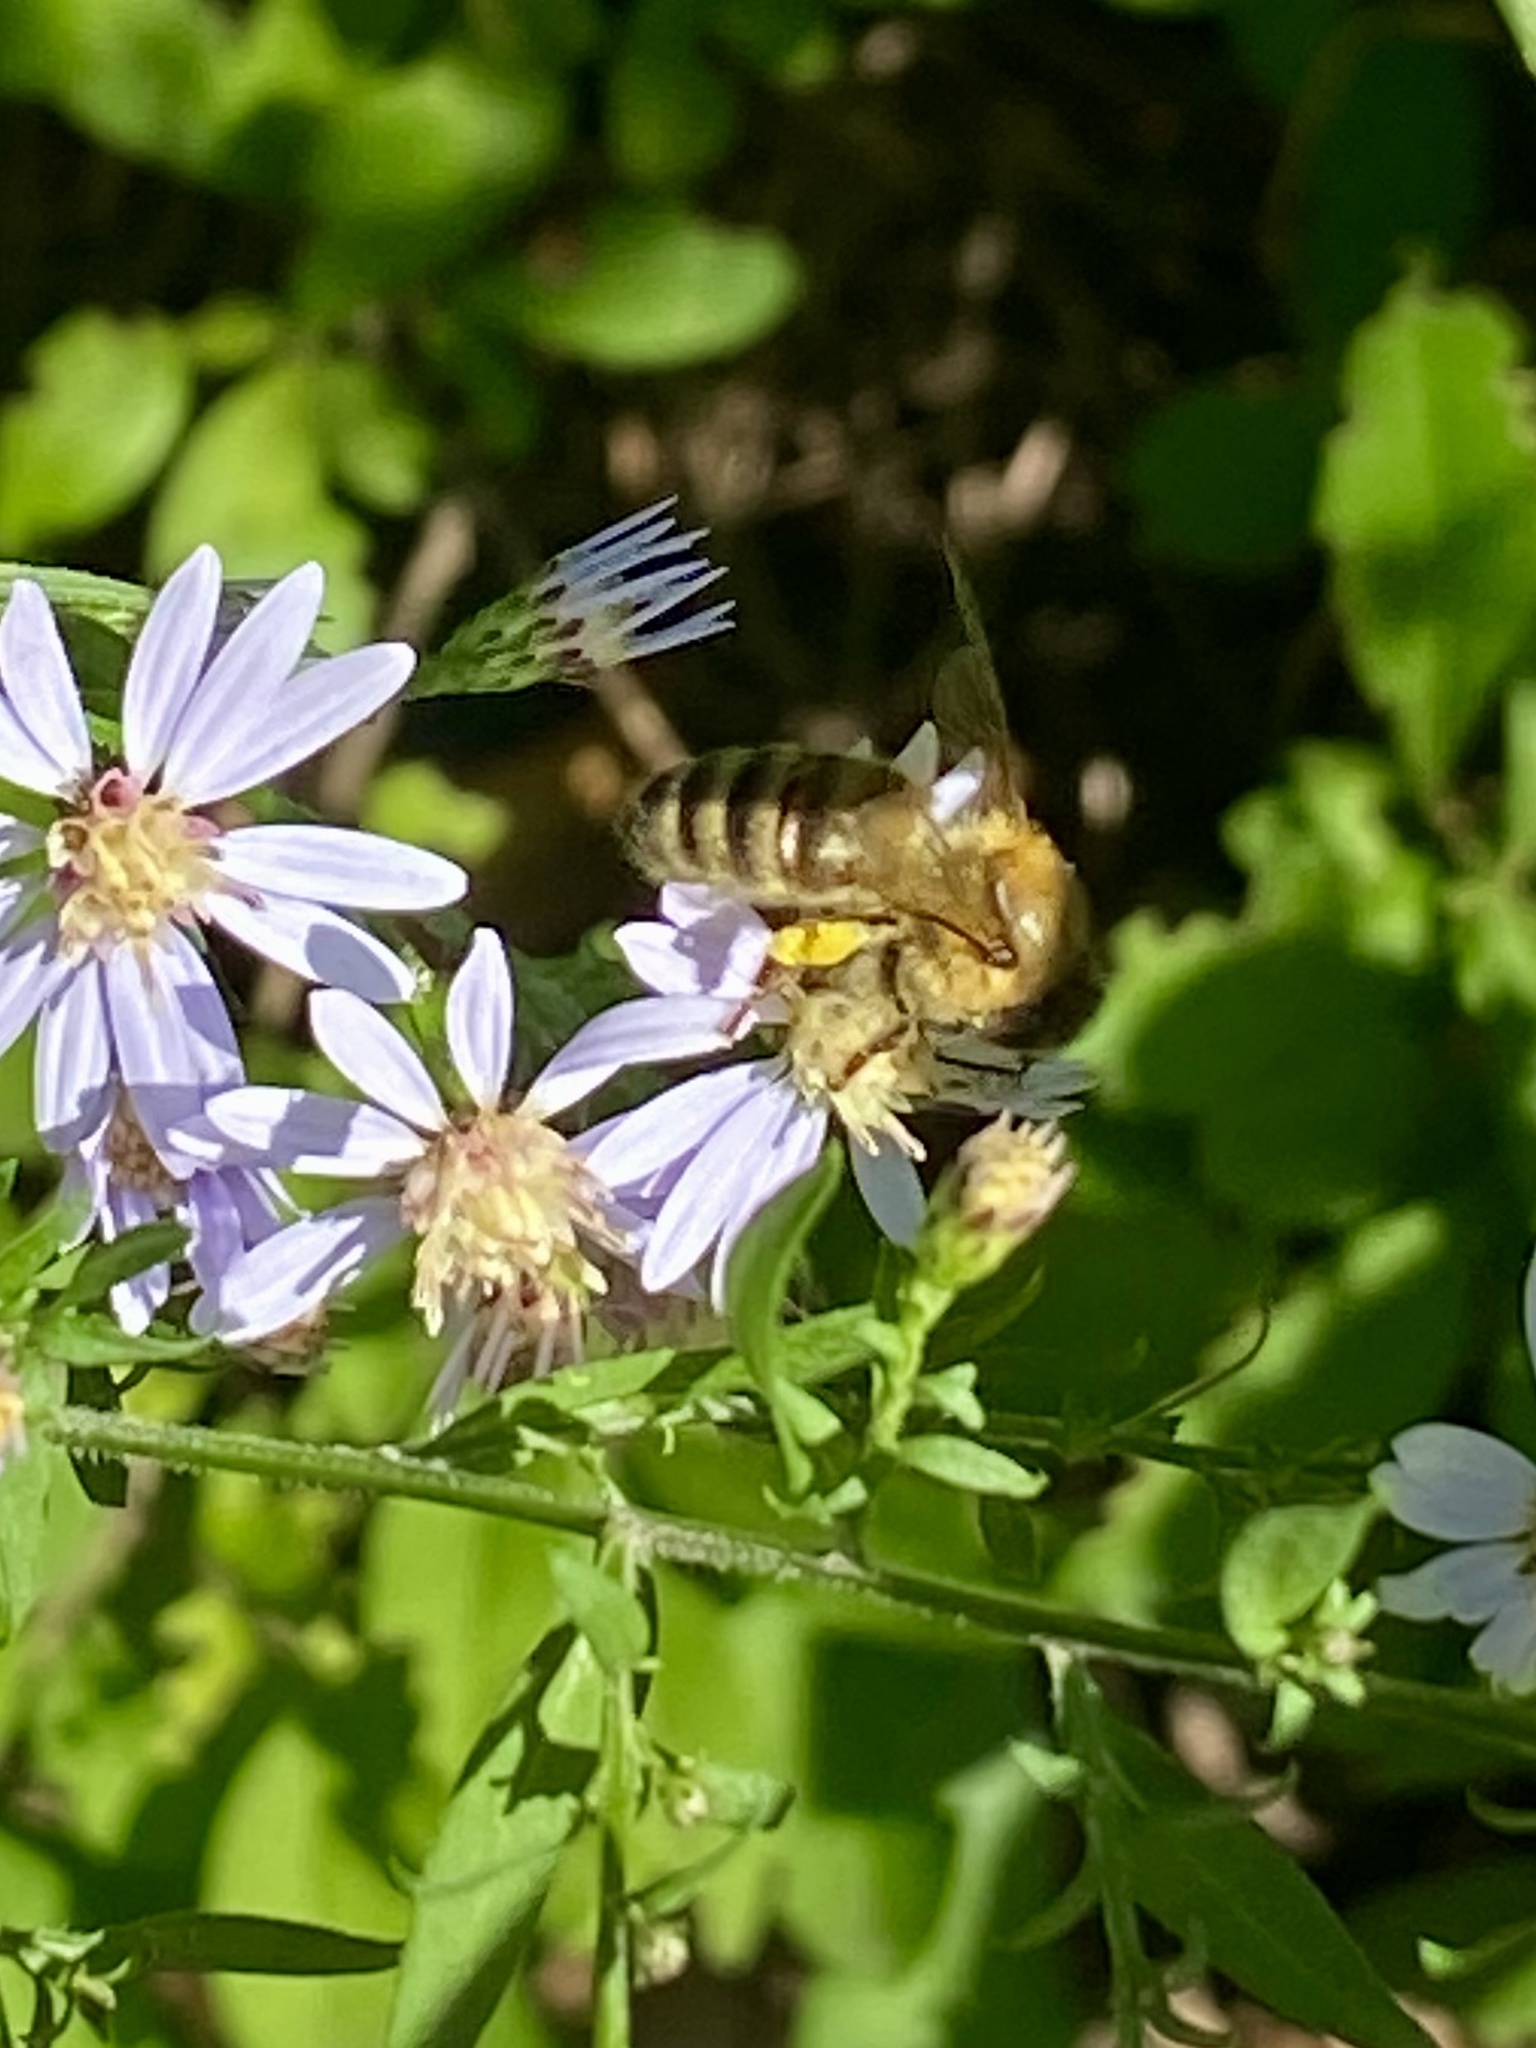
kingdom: Animalia
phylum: Arthropoda
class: Insecta
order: Hymenoptera
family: Apidae
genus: Apis
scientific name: Apis mellifera
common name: Honey bee
